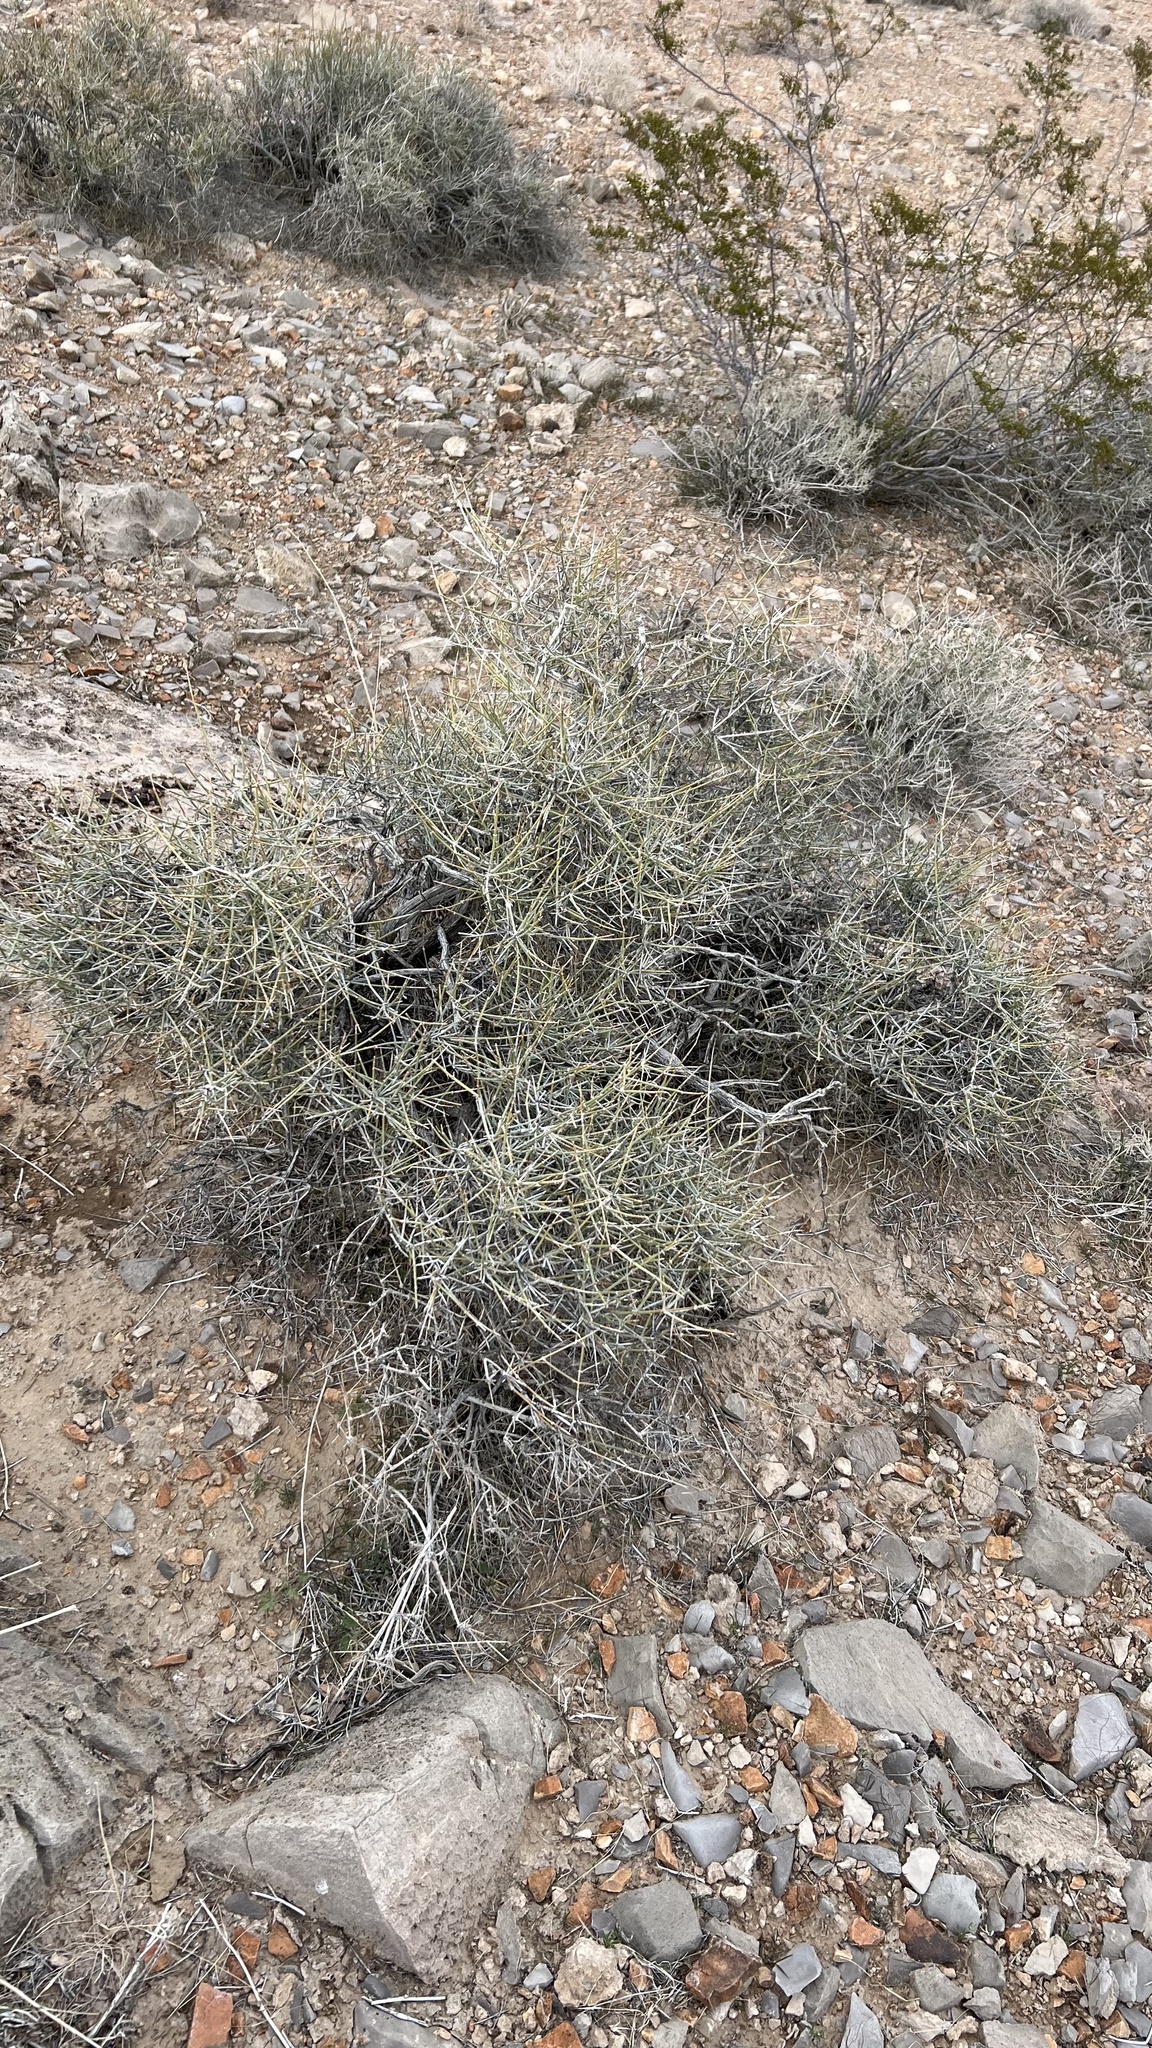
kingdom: Plantae
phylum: Tracheophyta
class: Gnetopsida
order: Ephedrales
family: Ephedraceae
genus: Ephedra
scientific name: Ephedra nevadensis
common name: Gray ephedra
